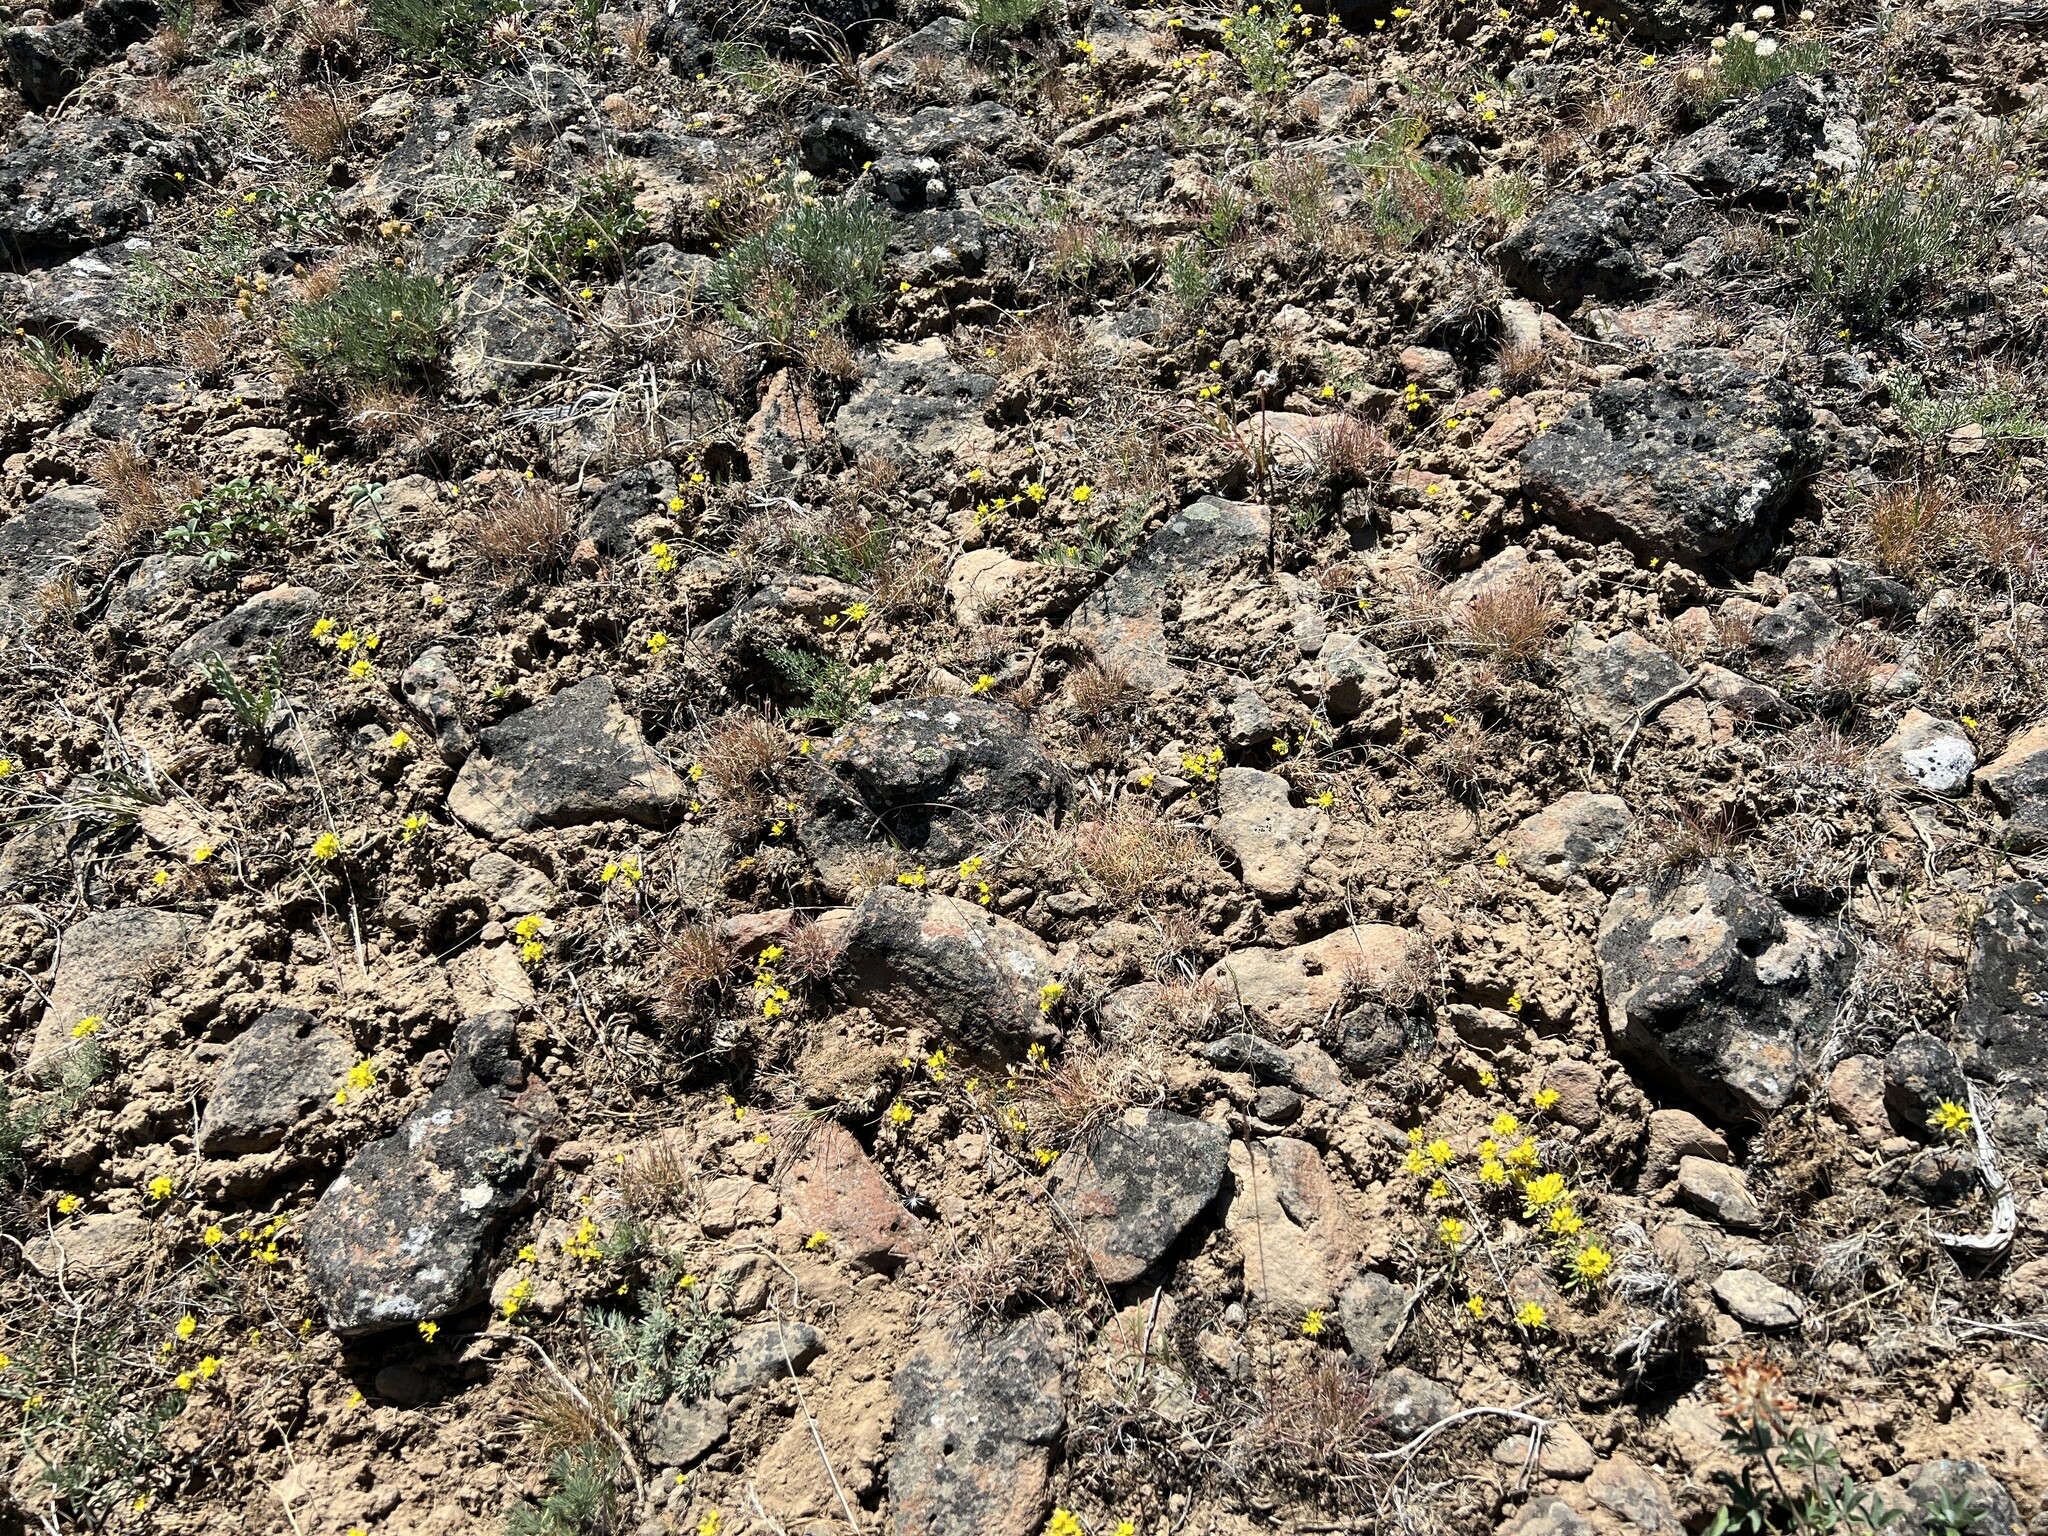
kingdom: Plantae
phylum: Tracheophyta
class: Magnoliopsida
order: Myrtales
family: Onagraceae
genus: Neoholmgrenia
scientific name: Neoholmgrenia hilgardii
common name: Hilgard's suncup
